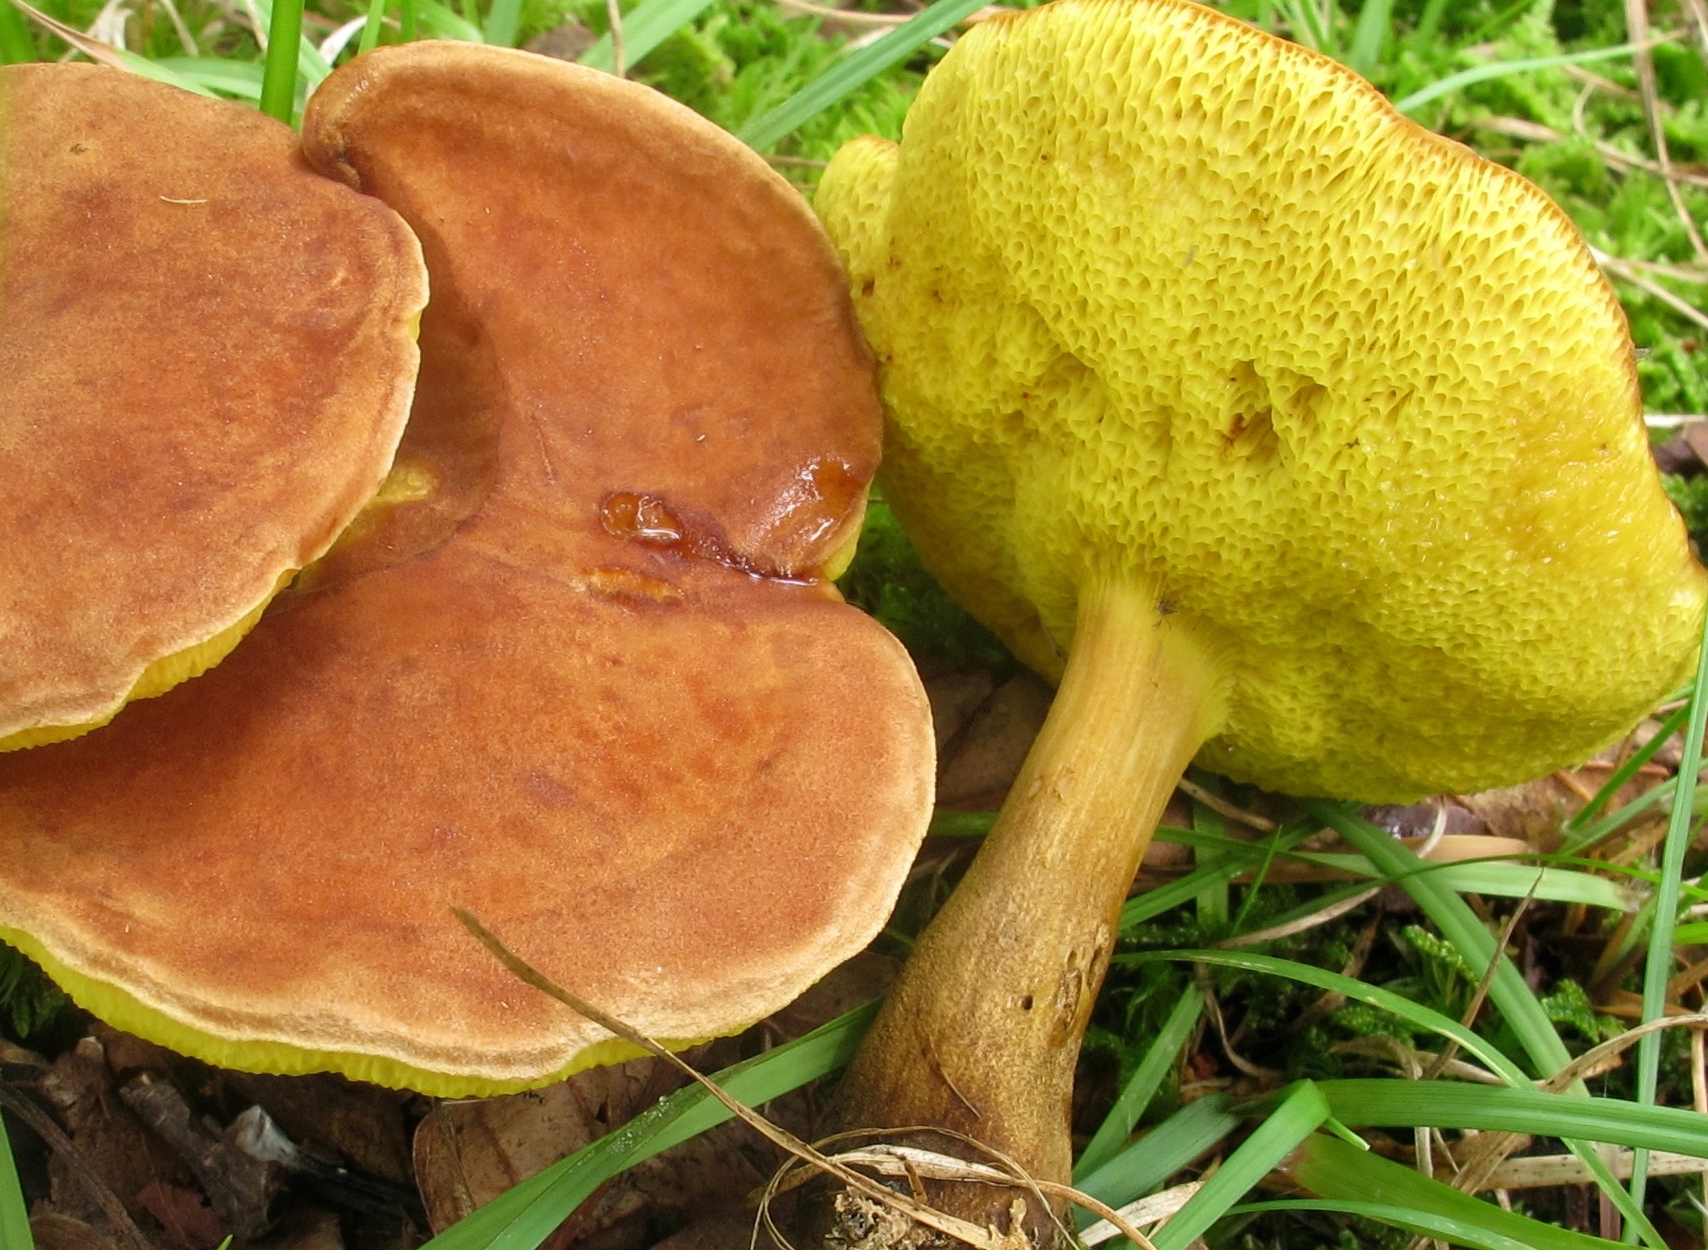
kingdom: Fungi
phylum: Basidiomycota
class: Agaricomycetes
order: Boletales
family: Boletaceae
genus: Aureoboletus
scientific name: Aureoboletus innixus
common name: Clustered brown bolete
